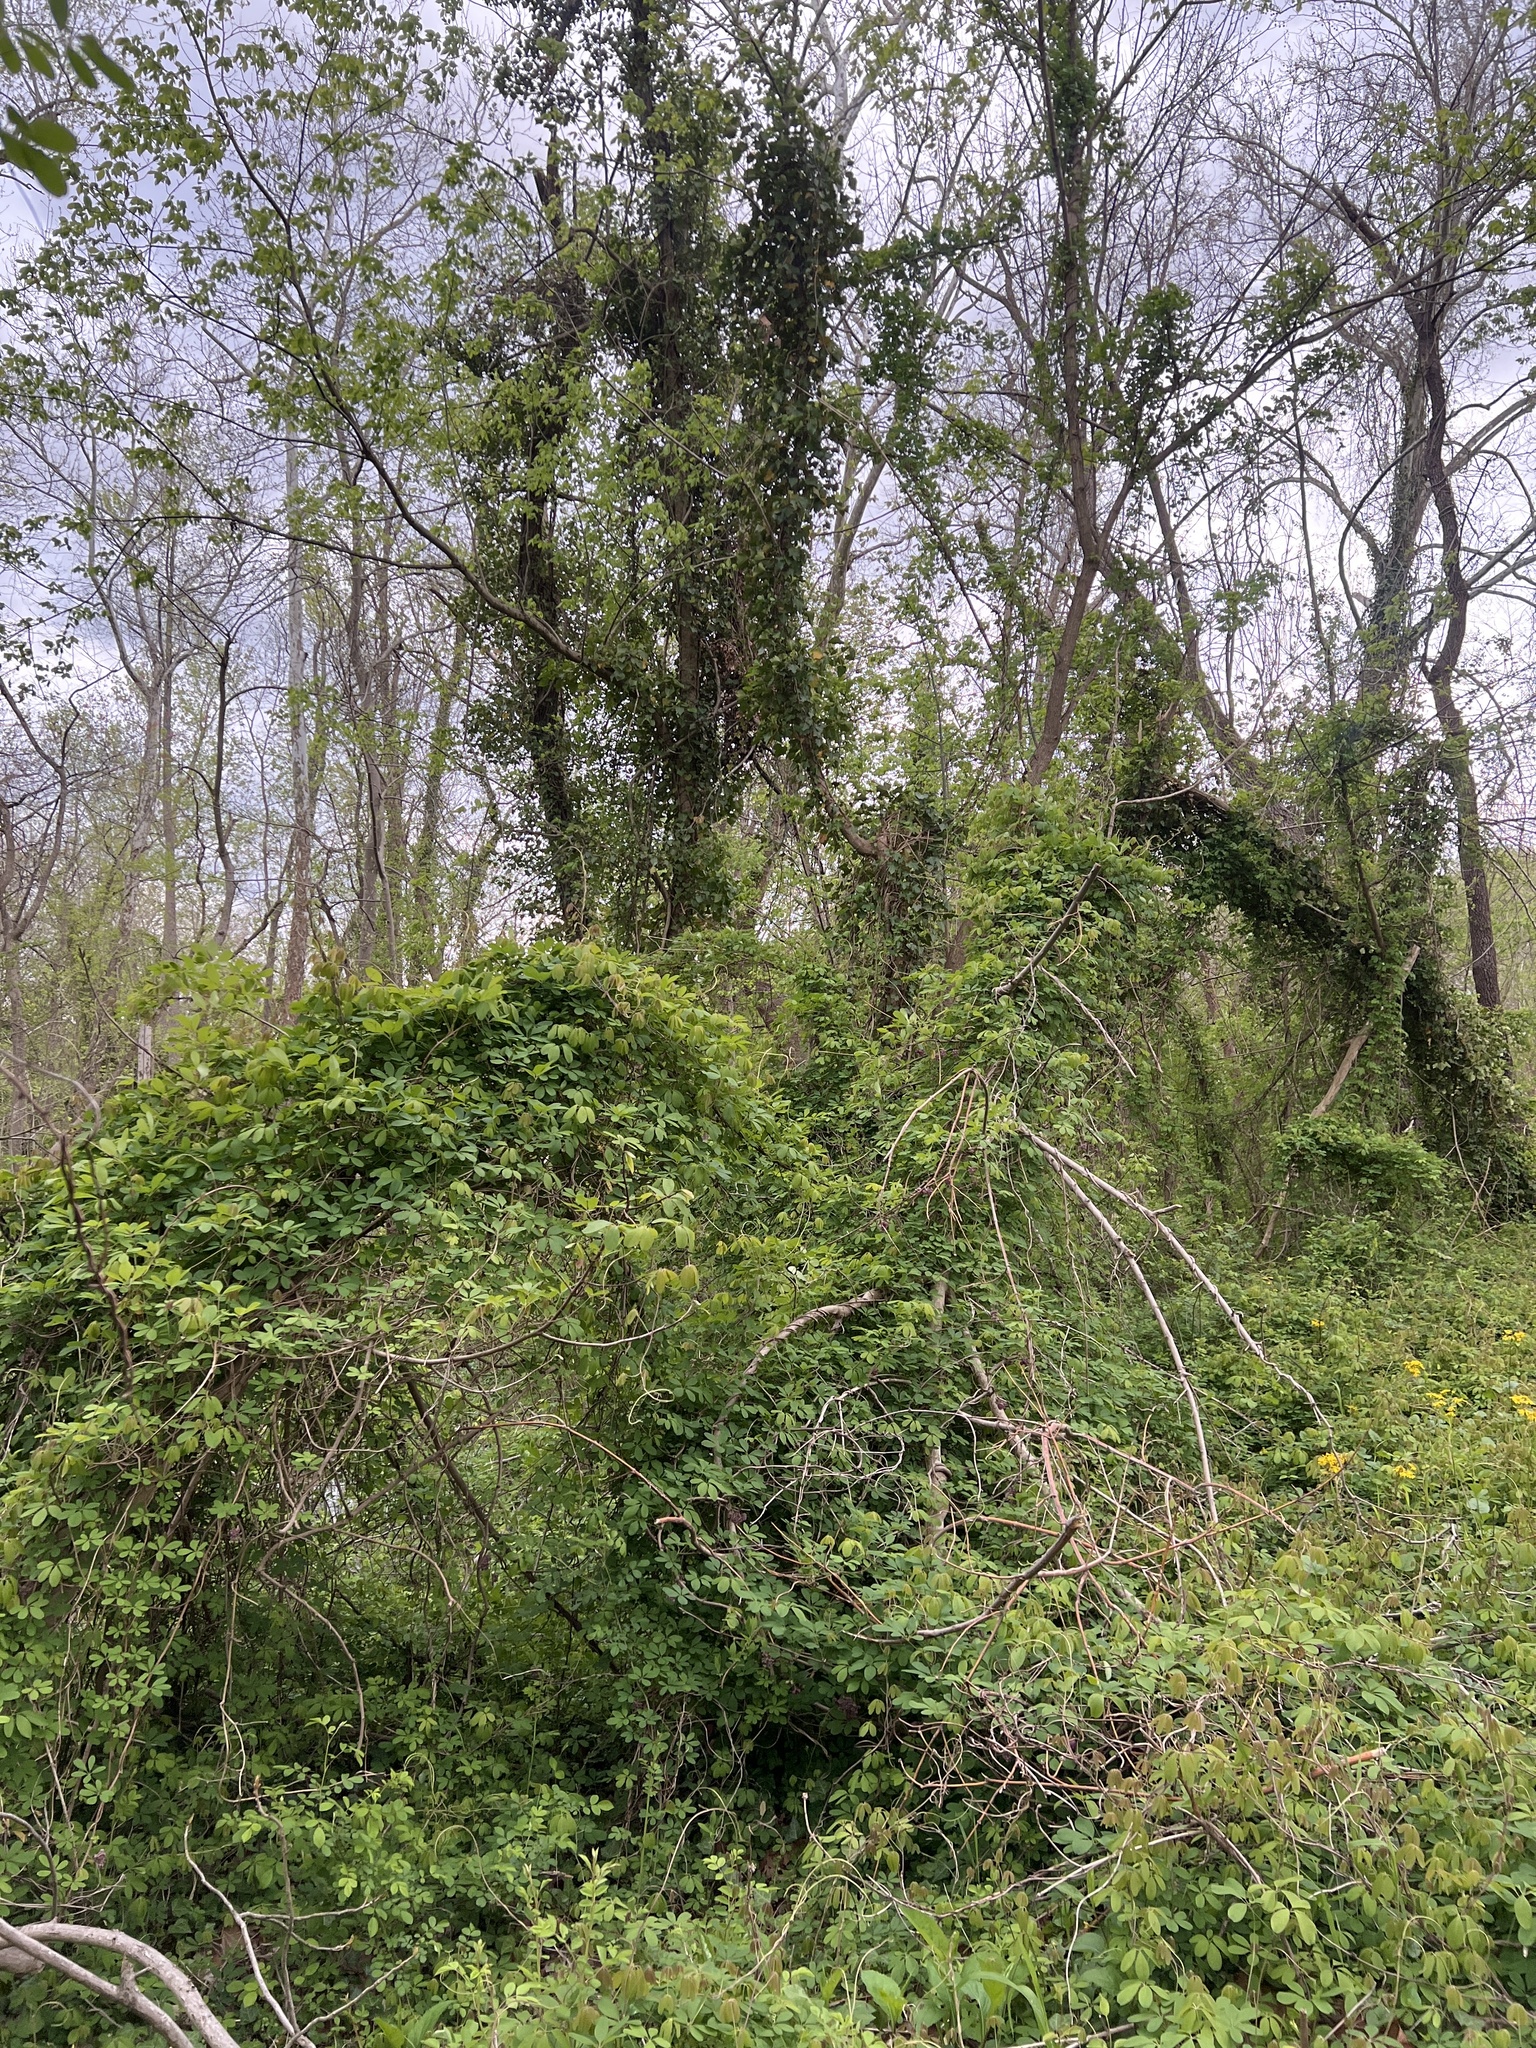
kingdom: Plantae
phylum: Tracheophyta
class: Magnoliopsida
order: Ranunculales
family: Lardizabalaceae
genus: Akebia
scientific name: Akebia quinata
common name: Five-leaf akebia
